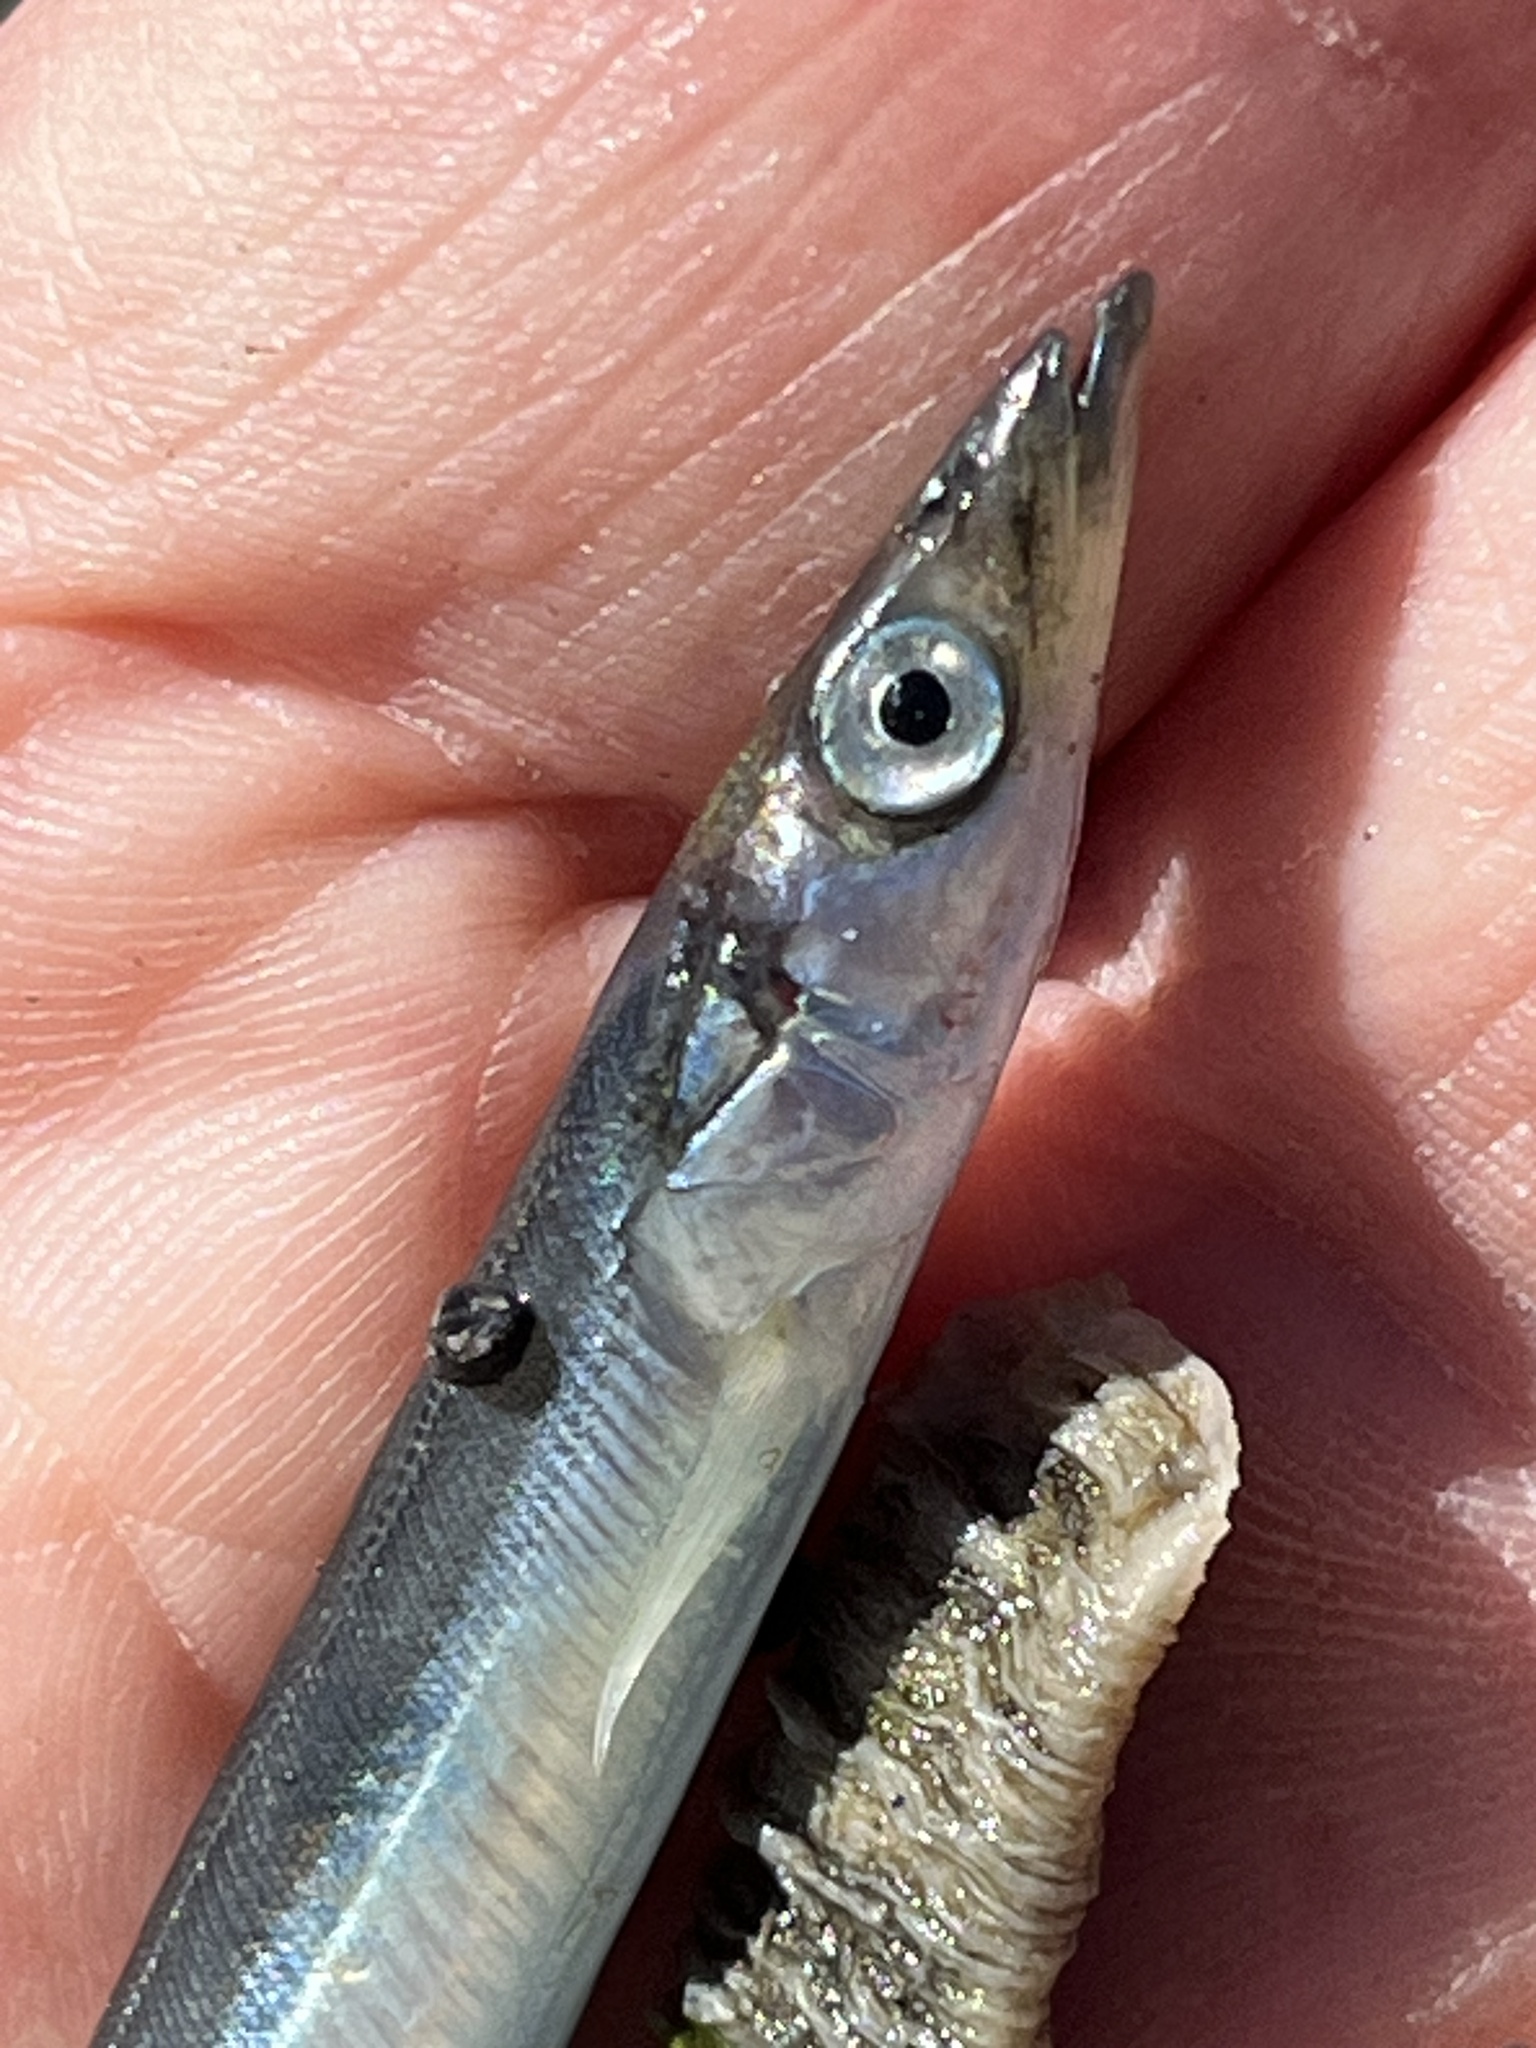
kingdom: Animalia
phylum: Chordata
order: Perciformes
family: Ammodytidae
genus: Ammodytes
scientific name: Ammodytes personatus
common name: Japanese sand lance
